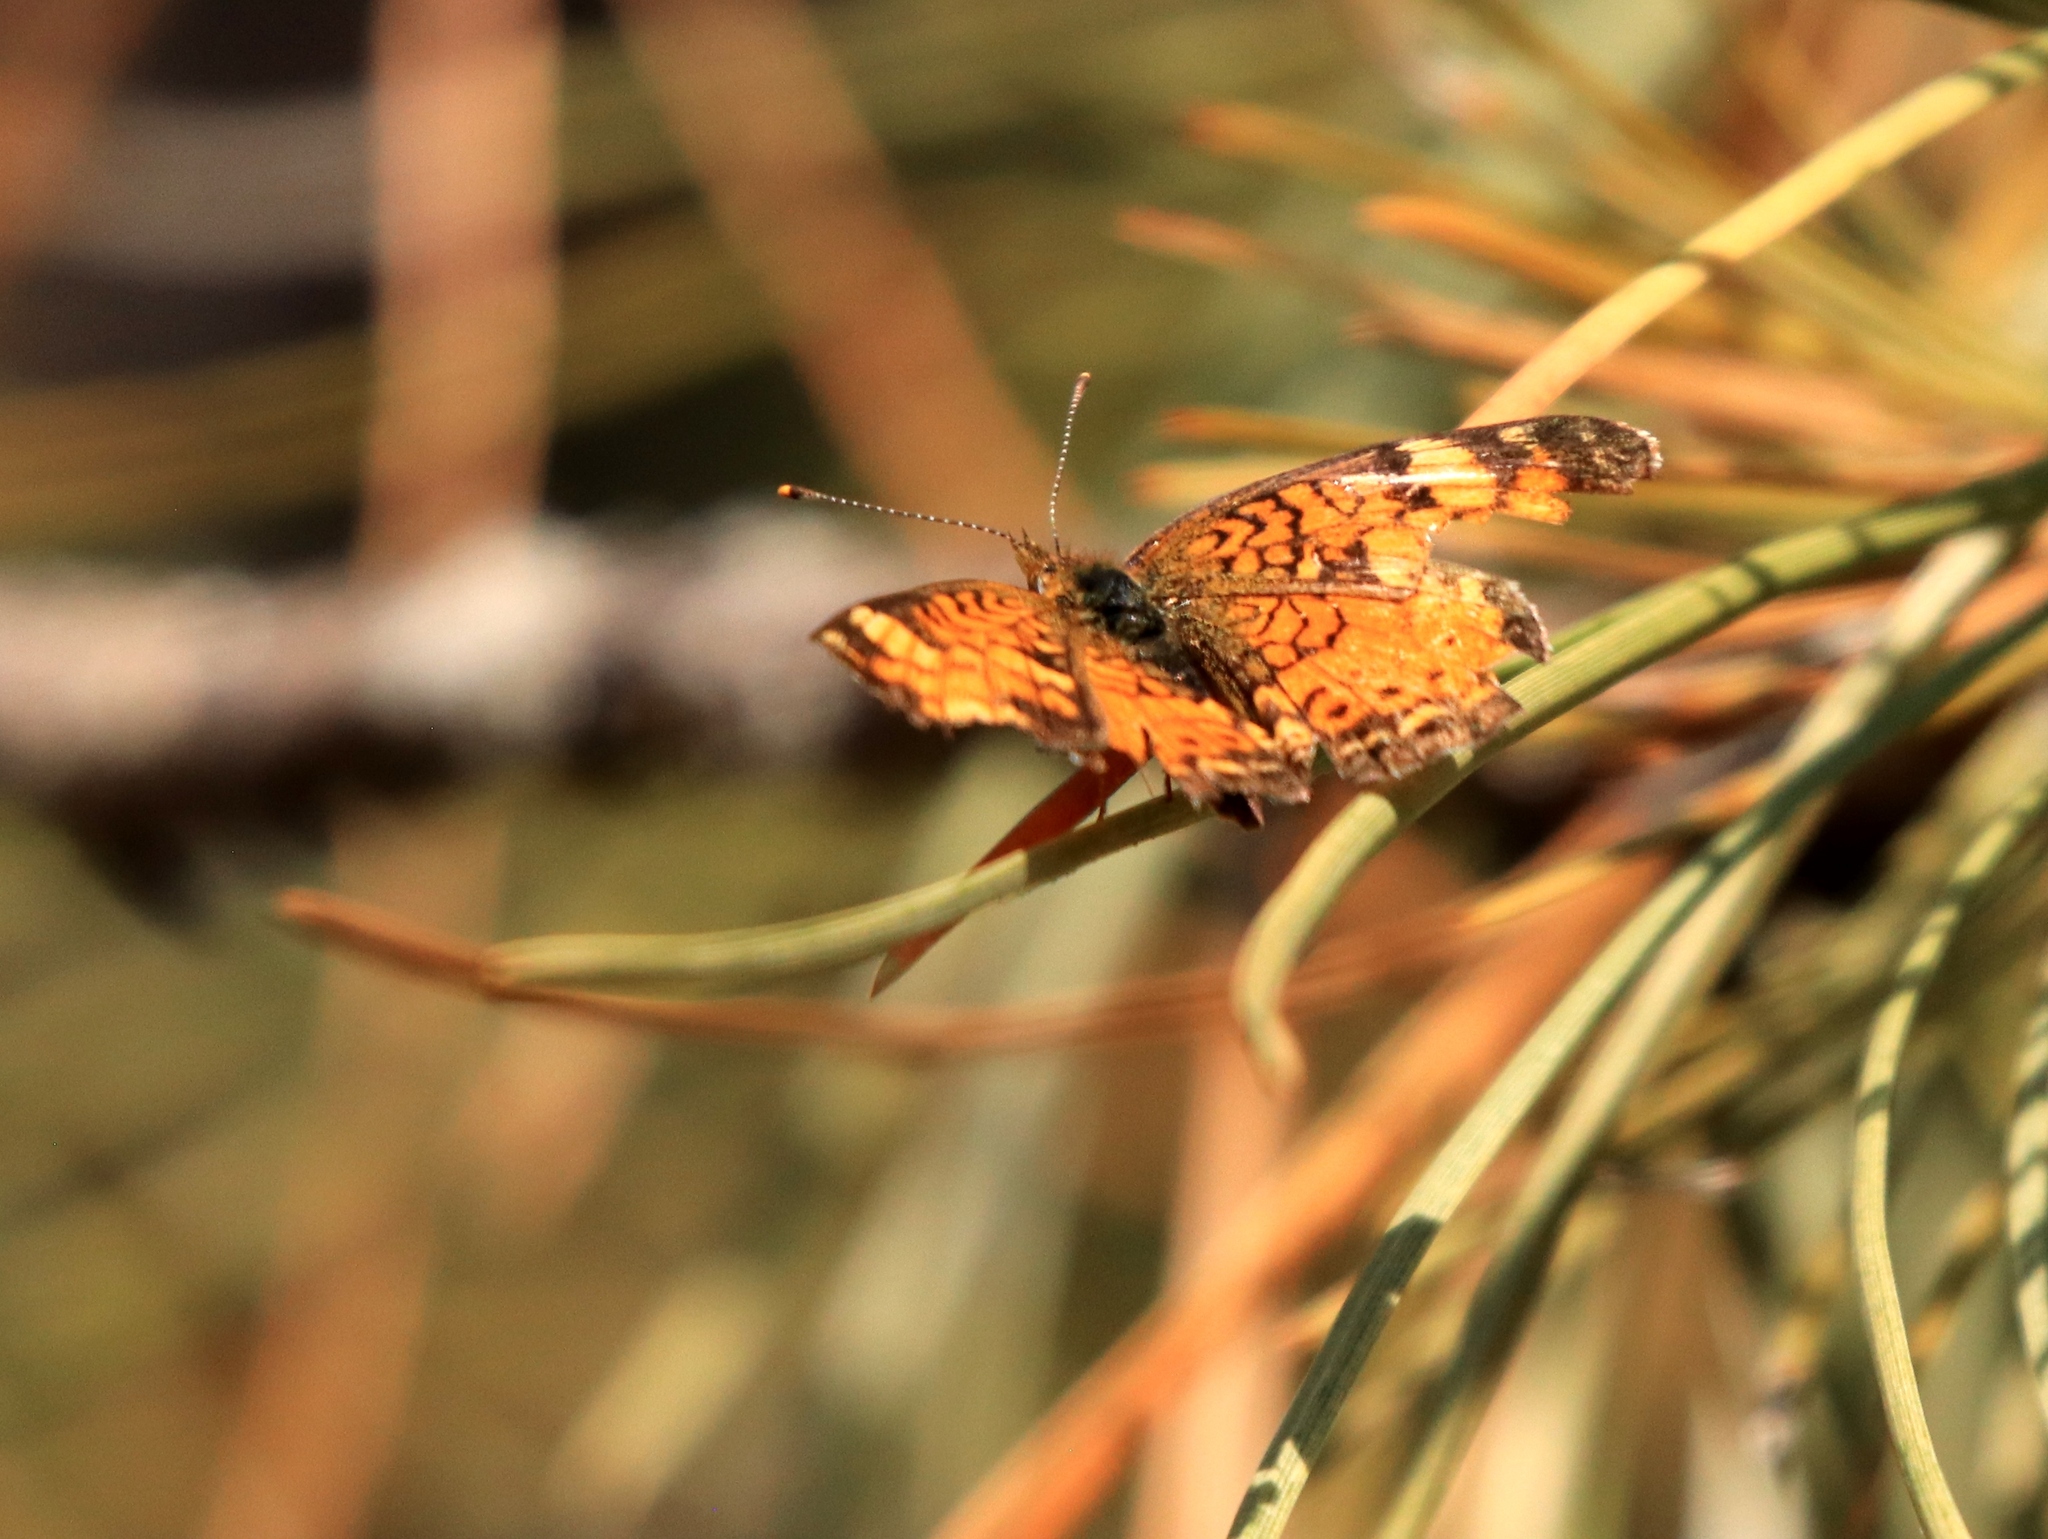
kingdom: Animalia
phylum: Arthropoda
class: Insecta
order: Lepidoptera
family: Nymphalidae
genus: Eresia
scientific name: Eresia aveyrona
